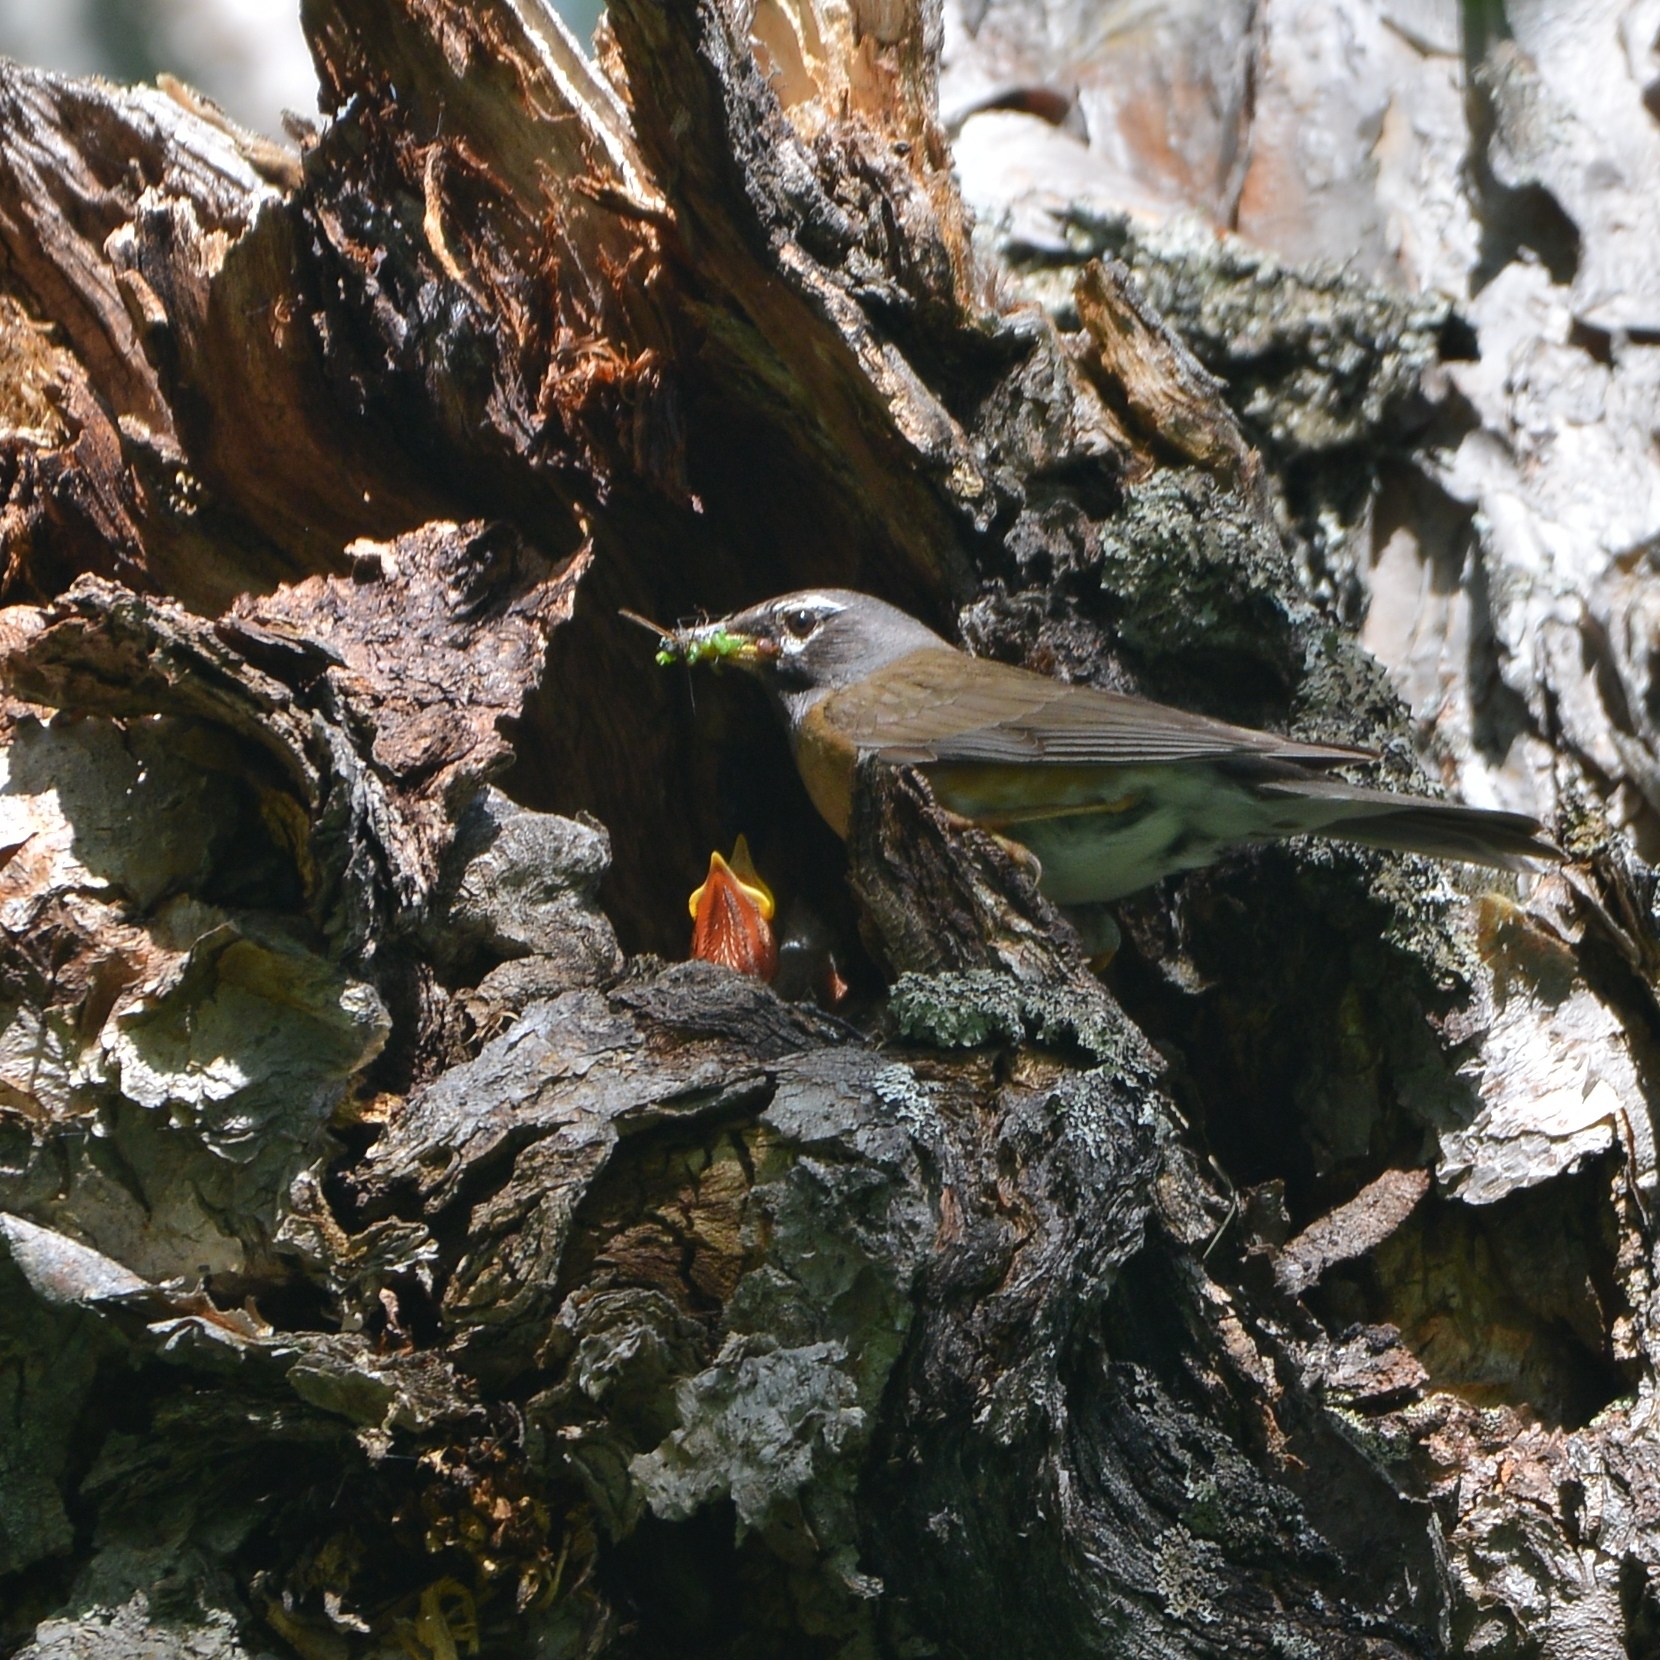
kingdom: Animalia
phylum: Chordata
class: Aves
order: Passeriformes
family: Turdidae
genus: Turdus
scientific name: Turdus obscurus
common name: Eyebrowed thrush
